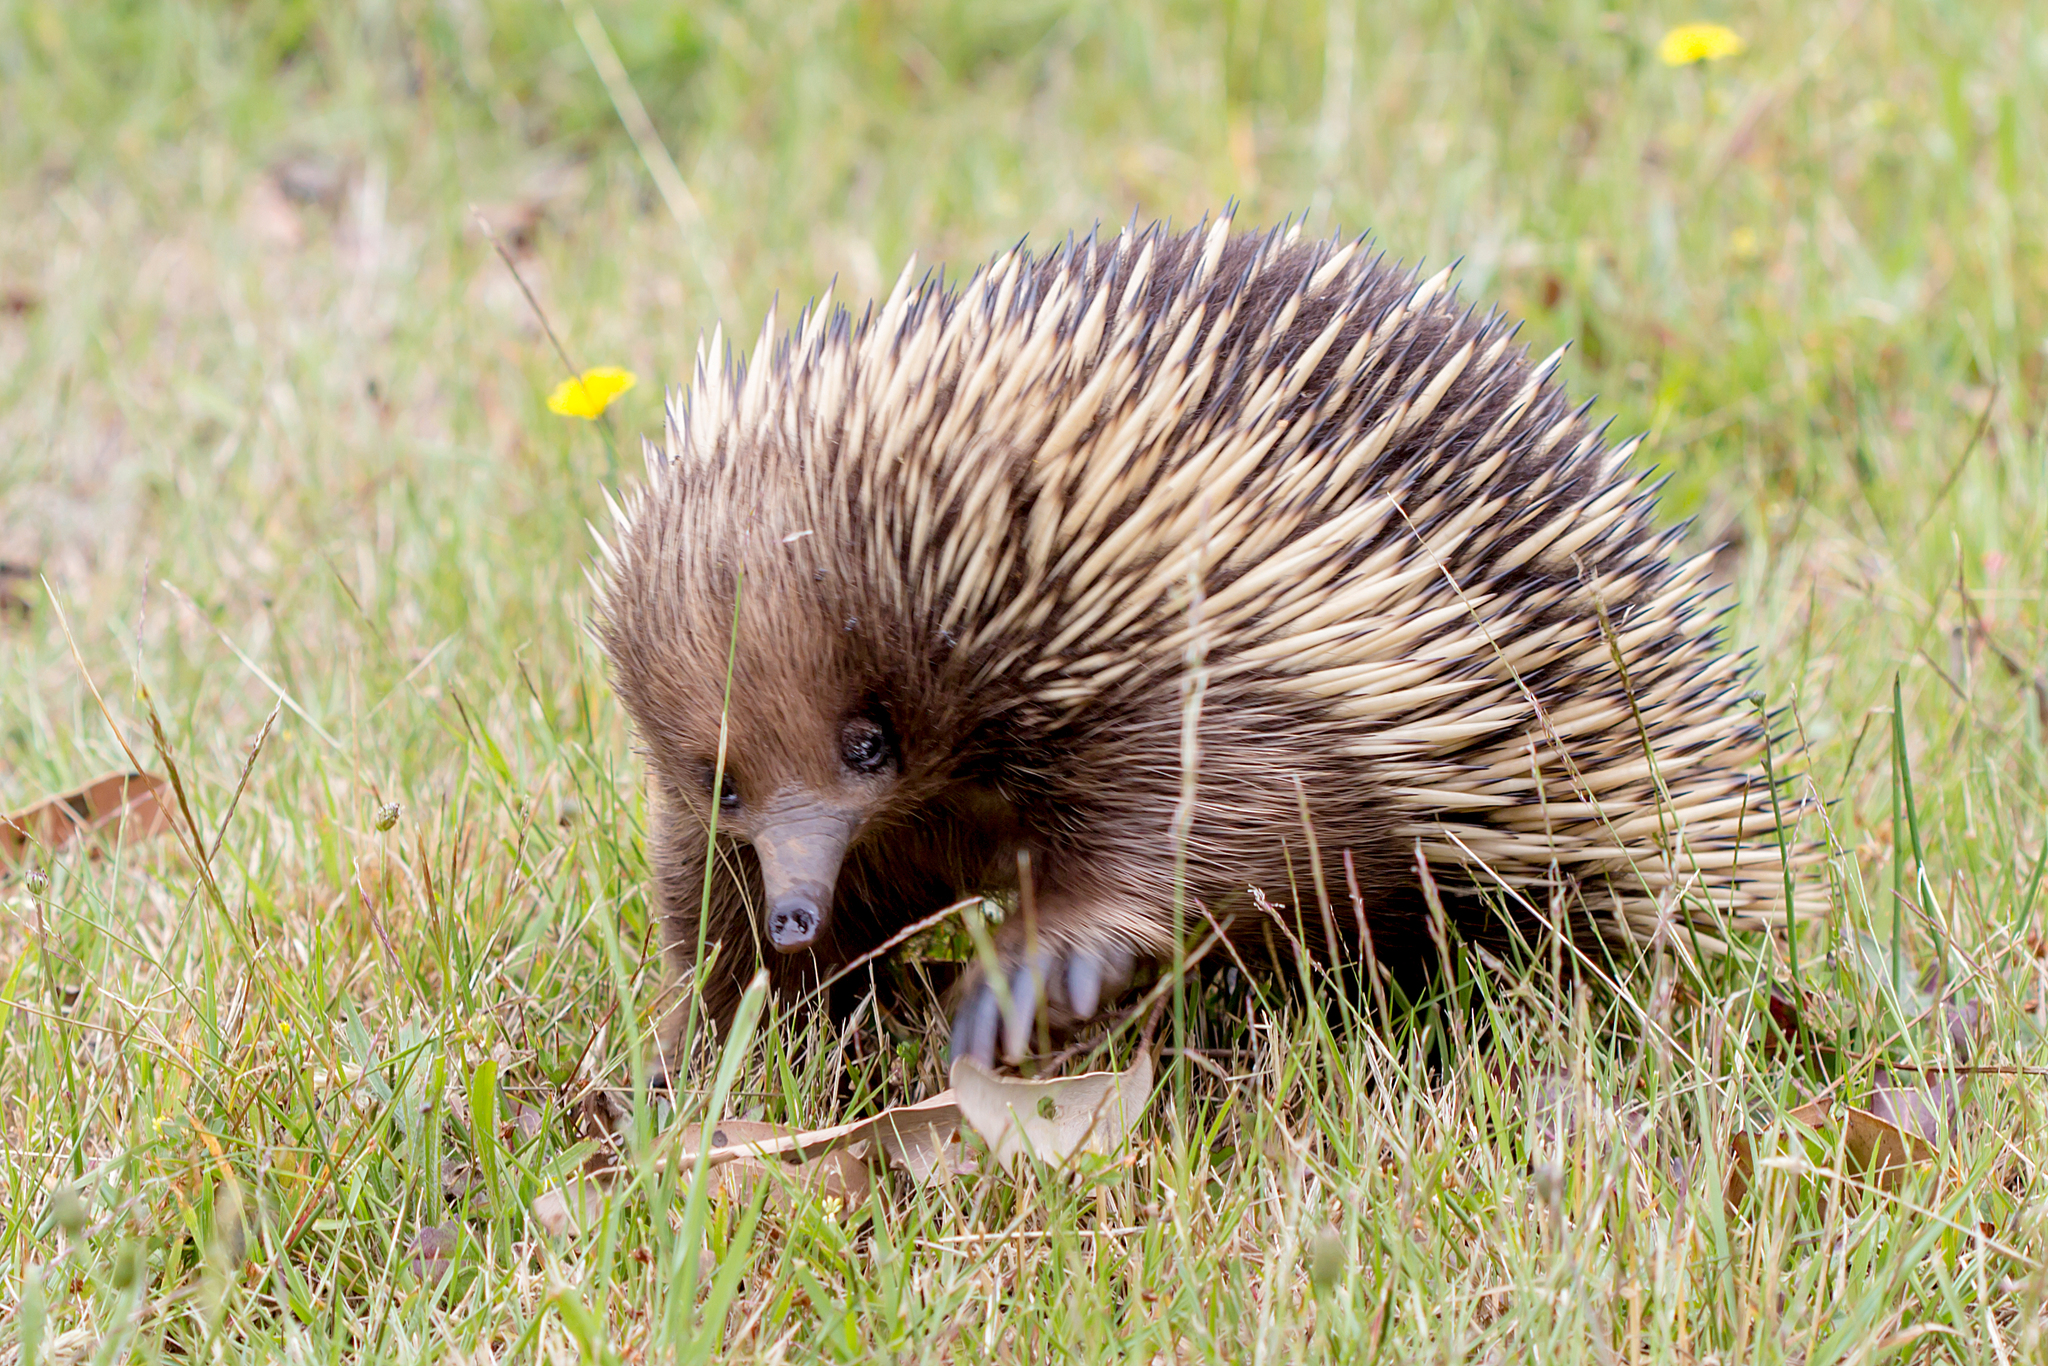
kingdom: Animalia
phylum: Chordata
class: Mammalia
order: Monotremata
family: Tachyglossidae
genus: Tachyglossus
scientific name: Tachyglossus aculeatus
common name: Short-beaked echidna
